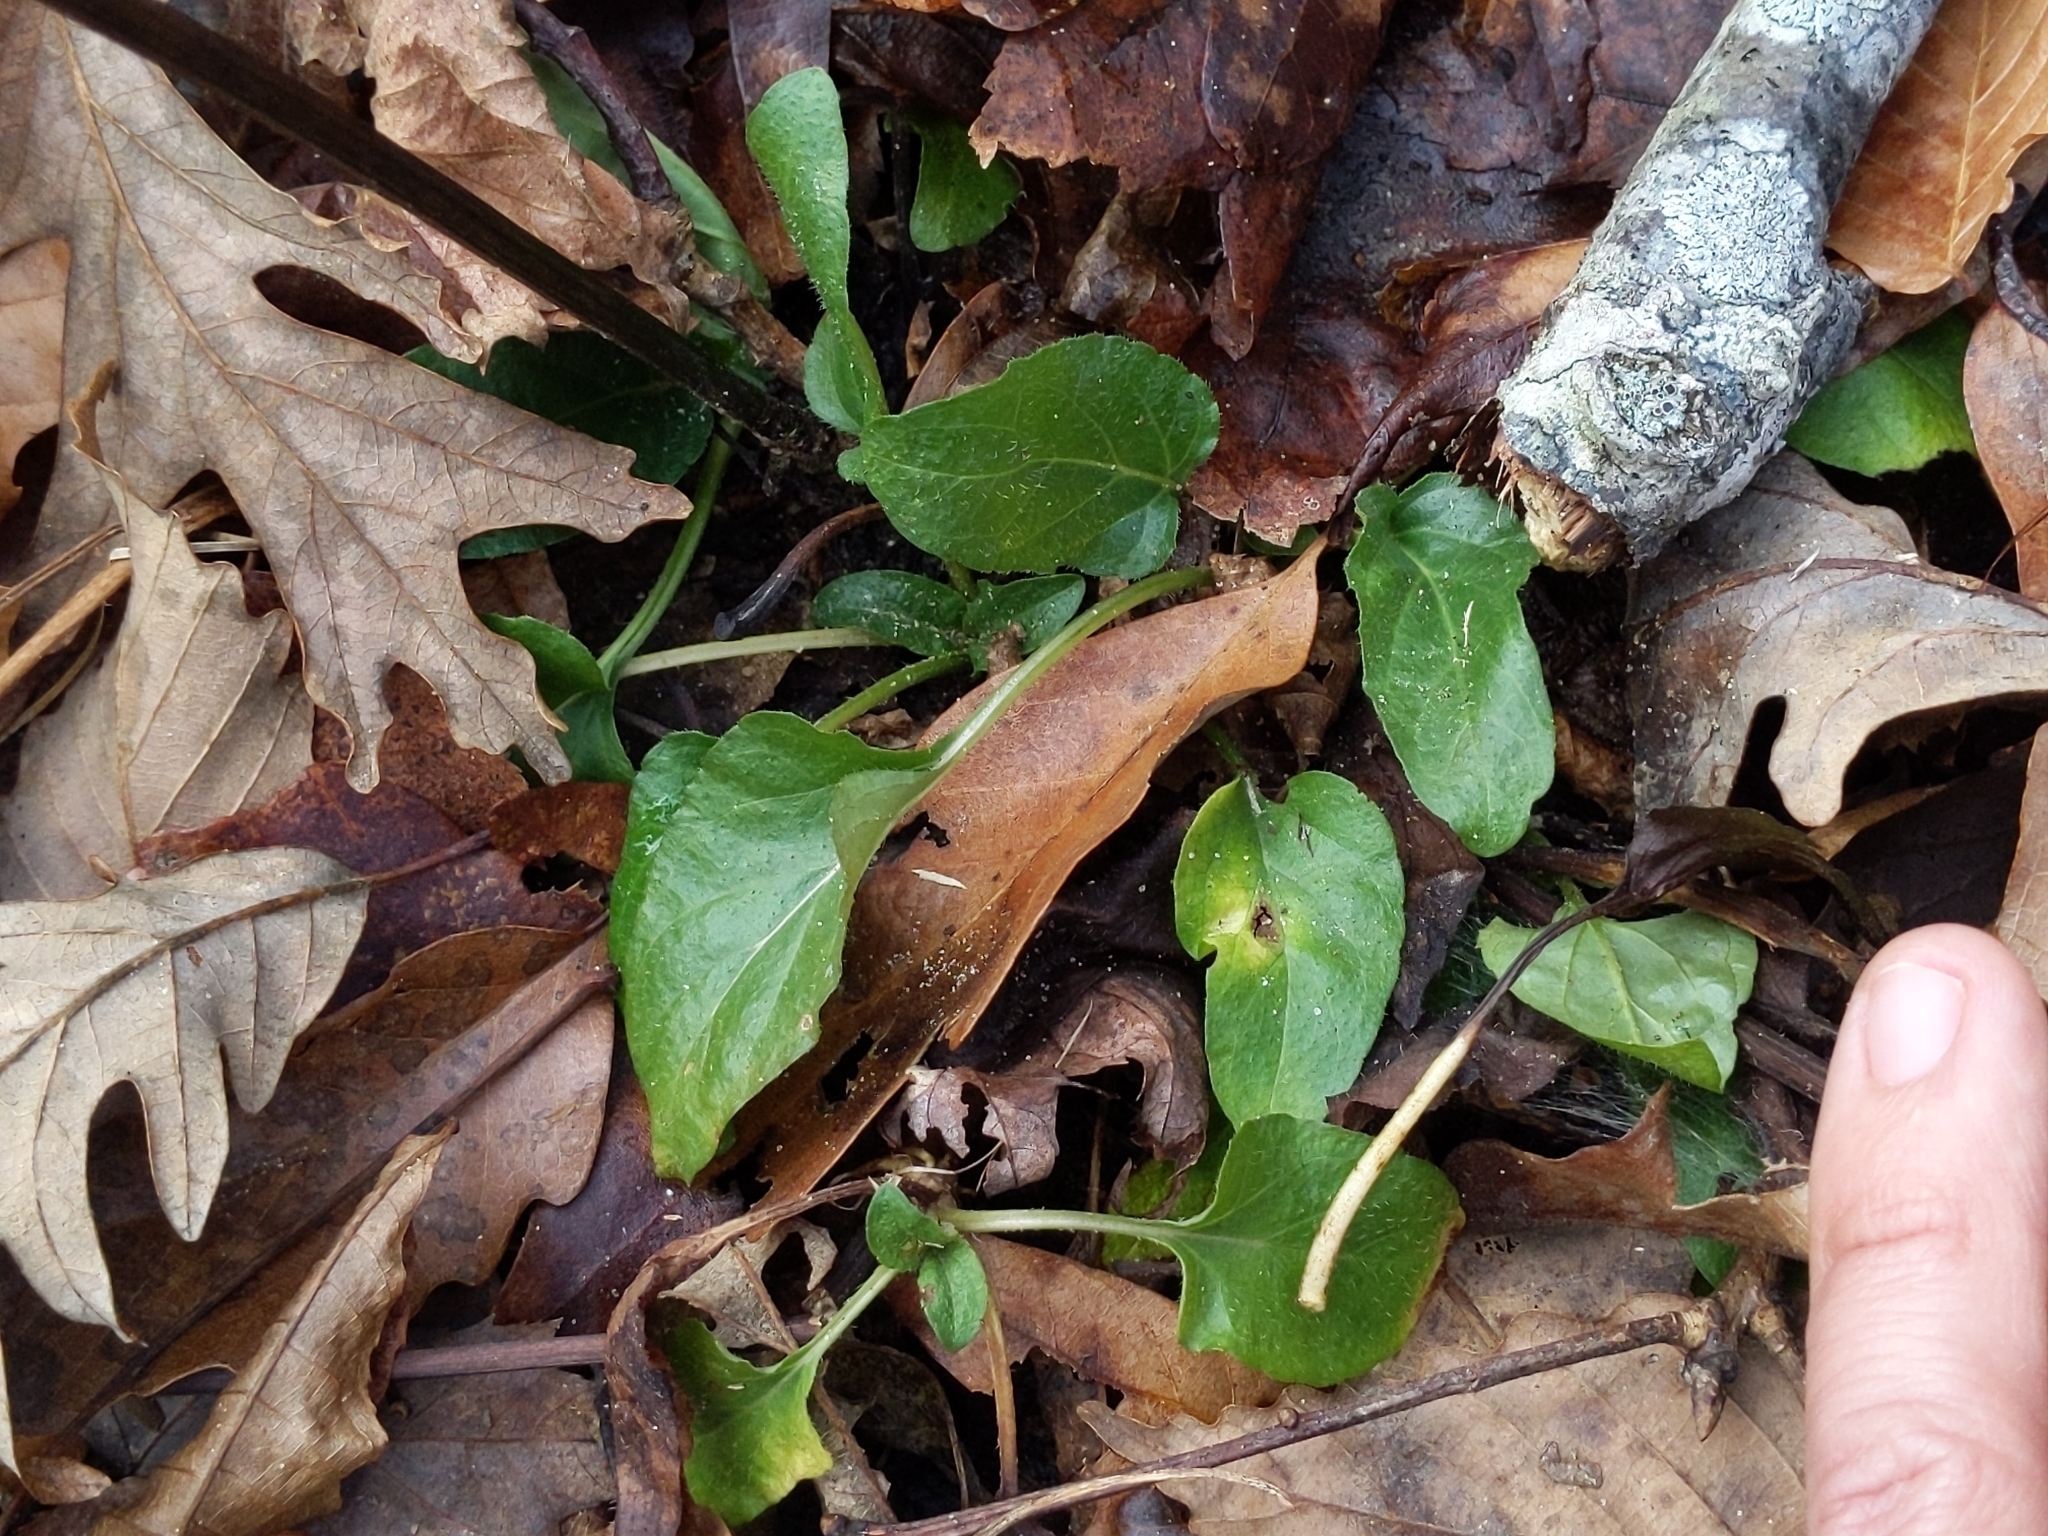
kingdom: Plantae
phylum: Tracheophyta
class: Magnoliopsida
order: Lamiales
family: Lamiaceae
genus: Prunella
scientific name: Prunella vulgaris
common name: Heal-all
